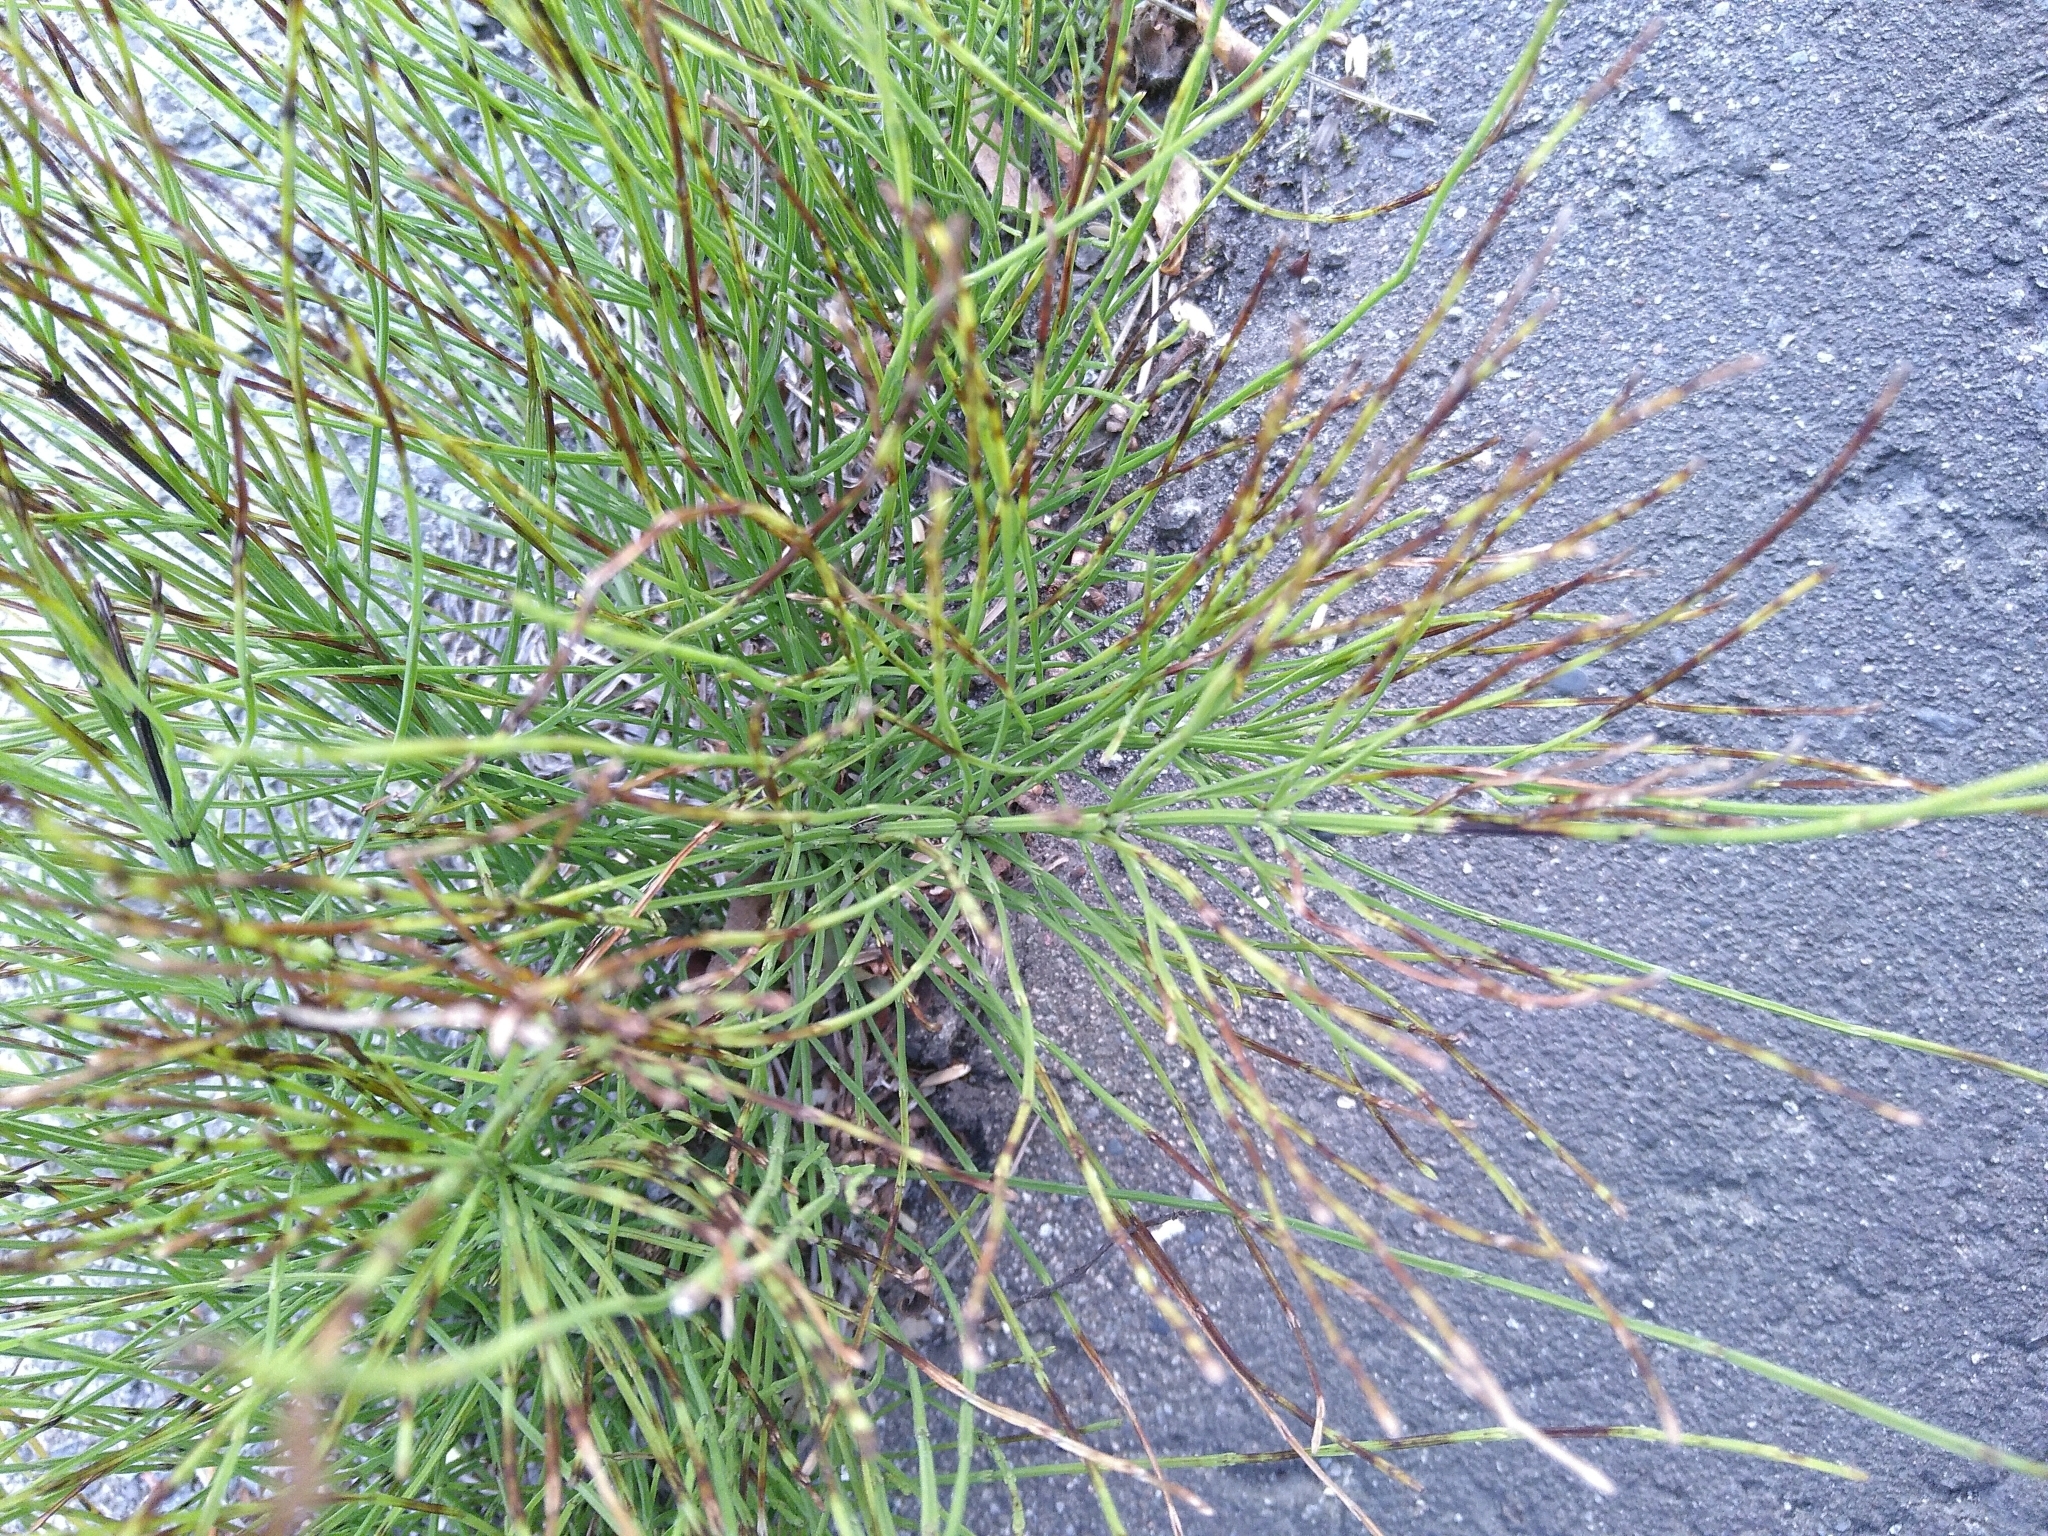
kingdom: Plantae
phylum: Tracheophyta
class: Polypodiopsida
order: Equisetales
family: Equisetaceae
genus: Equisetum
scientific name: Equisetum arvense
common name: Field horsetail
